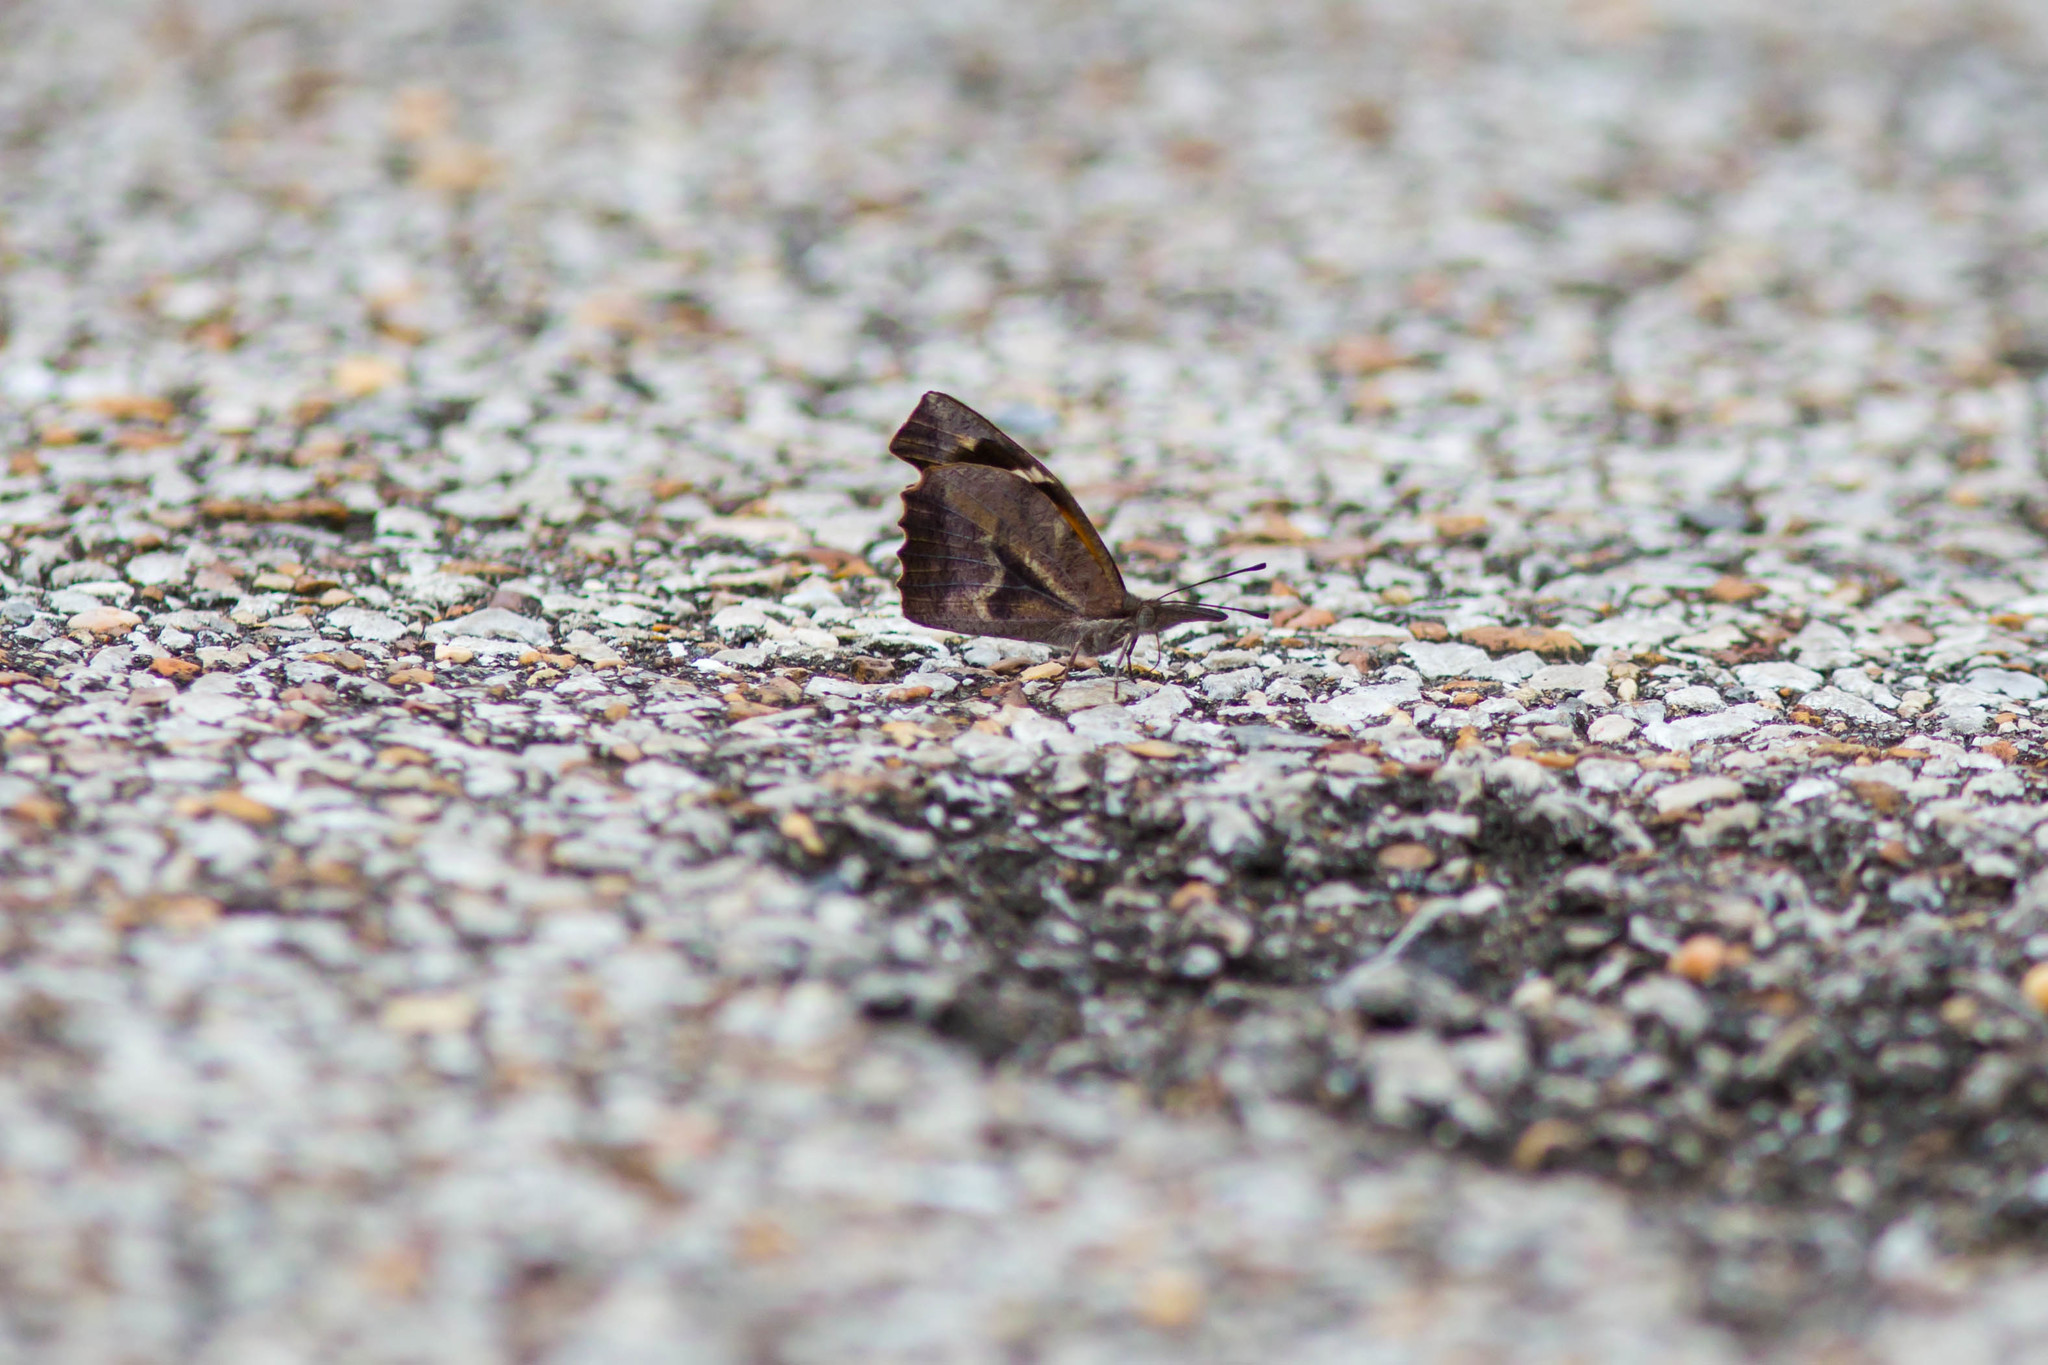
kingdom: Animalia
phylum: Arthropoda
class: Insecta
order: Lepidoptera
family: Nymphalidae
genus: Libytheana
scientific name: Libytheana carinenta
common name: American snout
